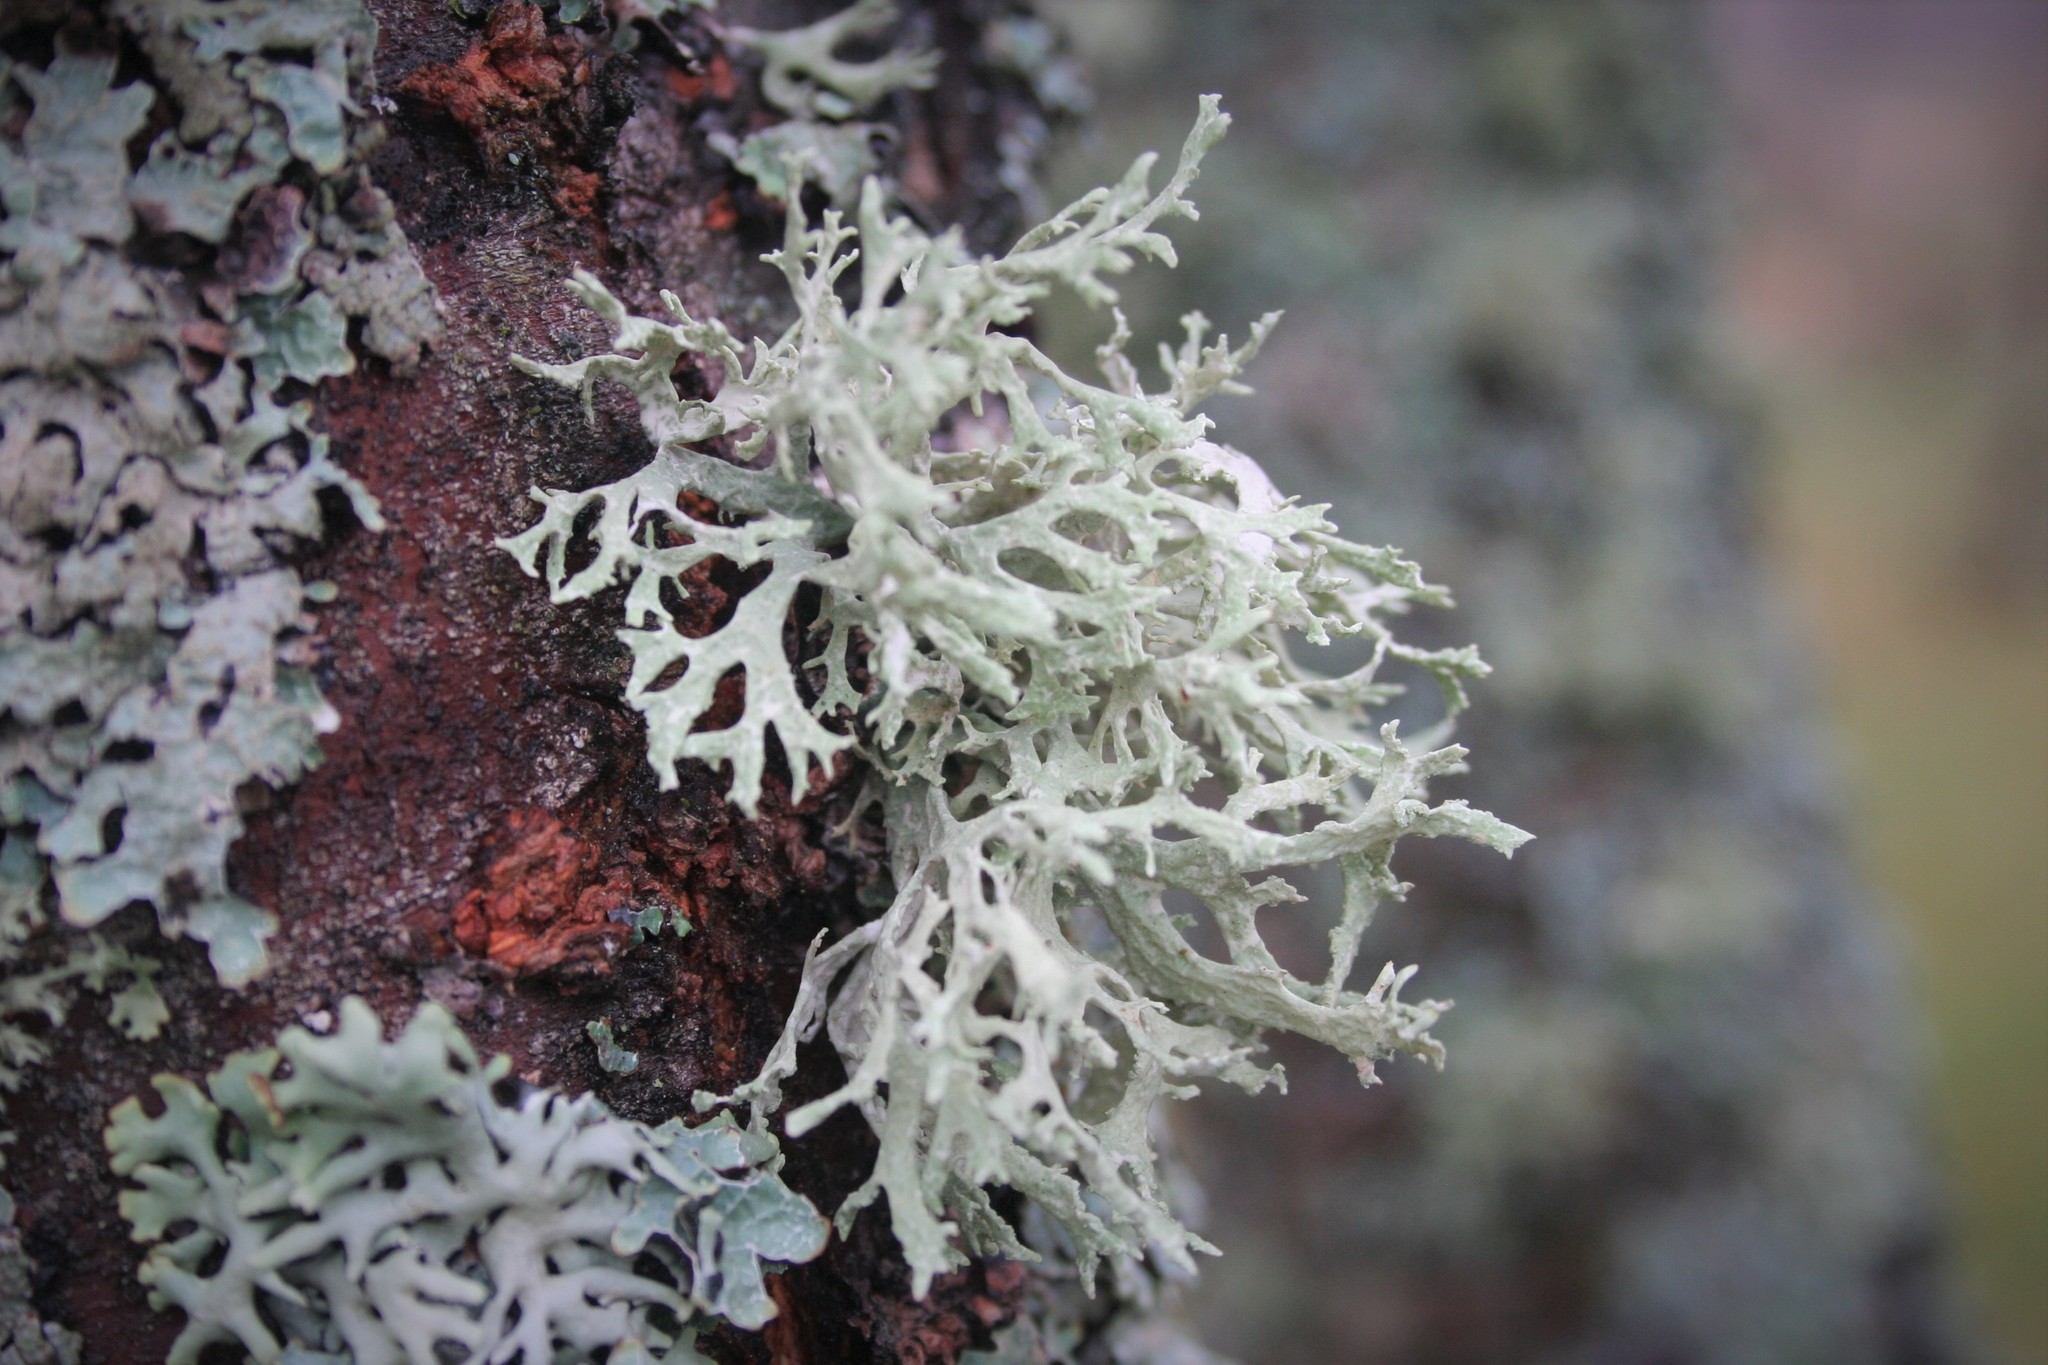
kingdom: Fungi
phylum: Ascomycota
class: Lecanoromycetes
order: Lecanorales
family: Parmeliaceae
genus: Evernia
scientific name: Evernia prunastri
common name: Oak moss
